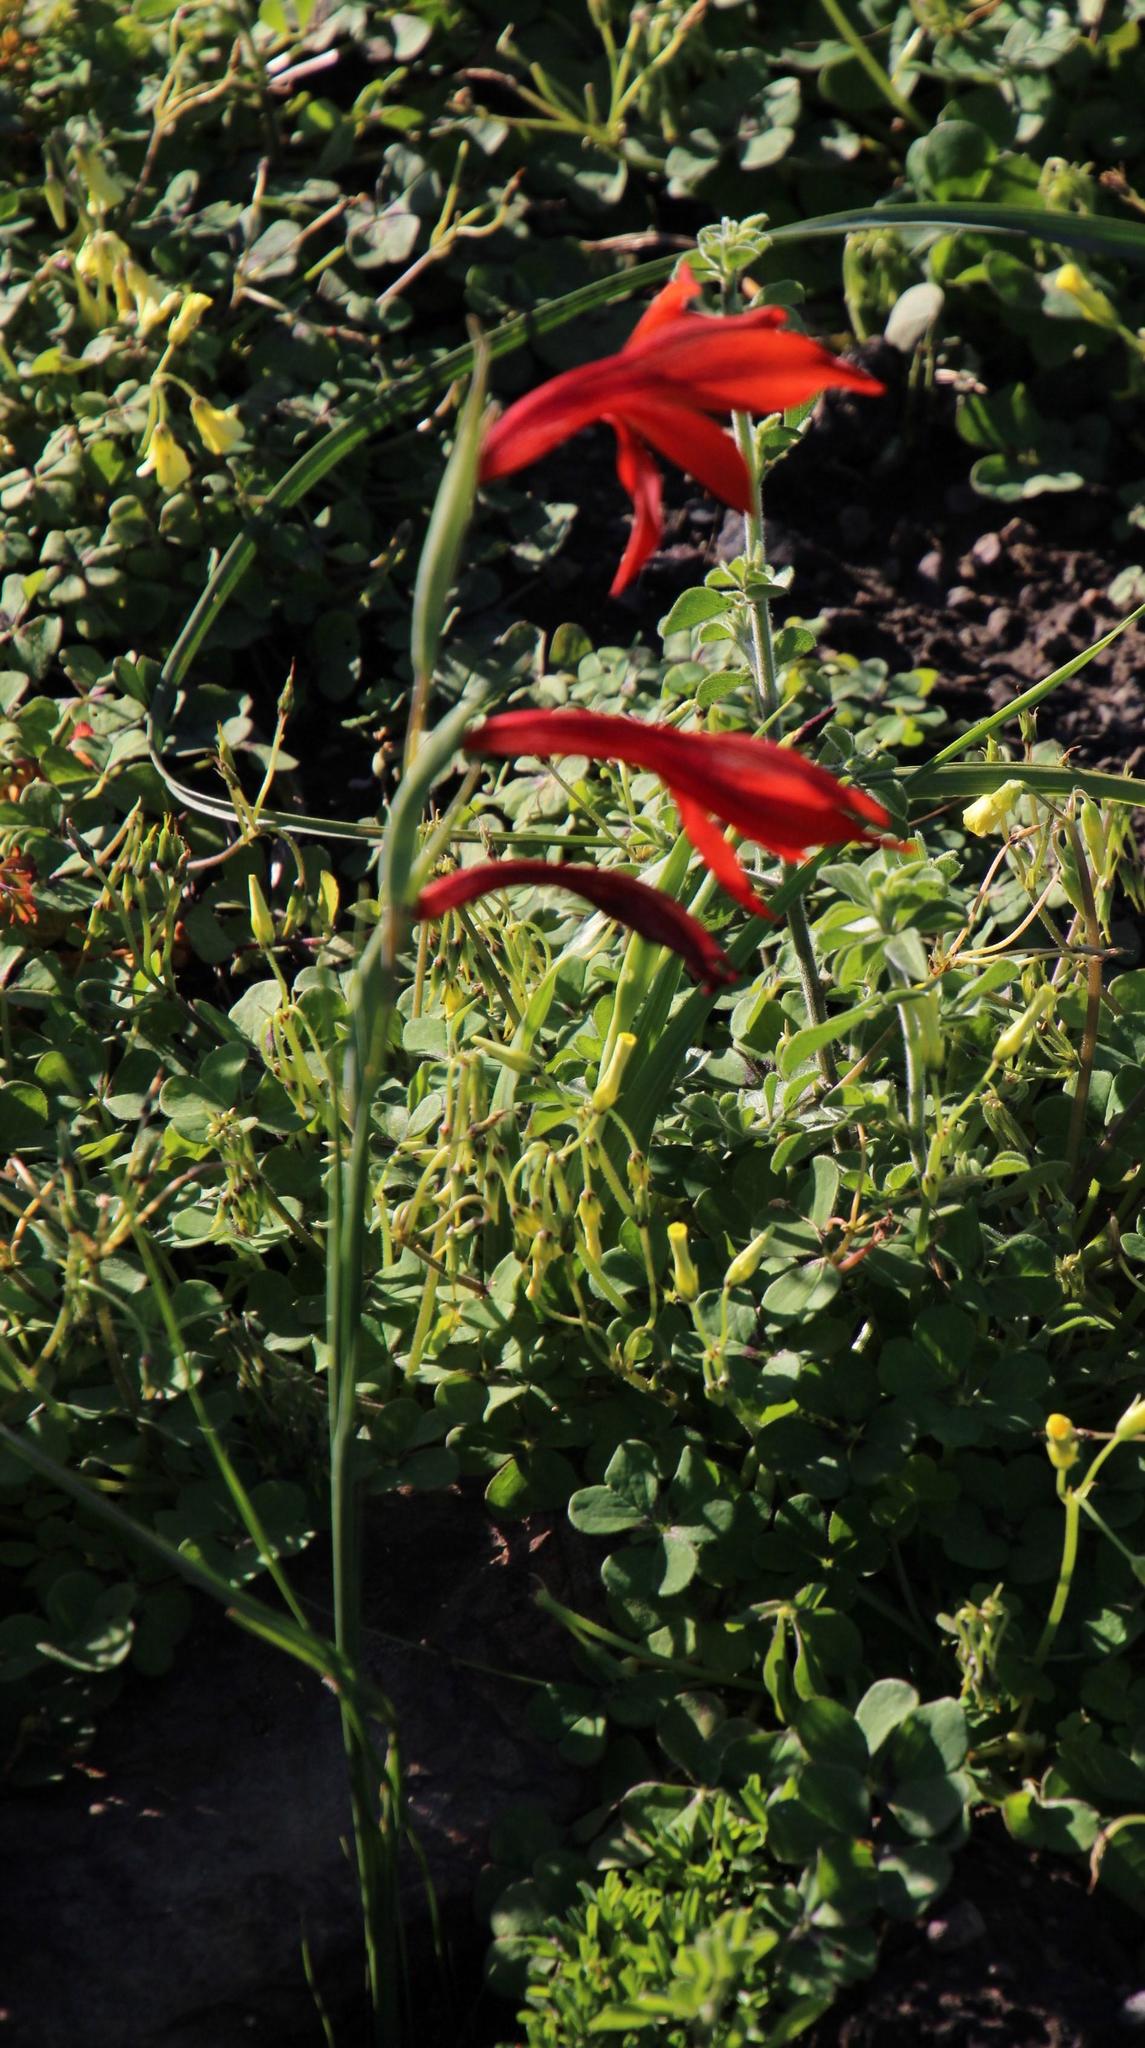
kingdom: Plantae
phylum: Tracheophyta
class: Liliopsida
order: Asparagales
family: Iridaceae
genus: Gladiolus
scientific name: Gladiolus watsonius
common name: Red afrikaner
